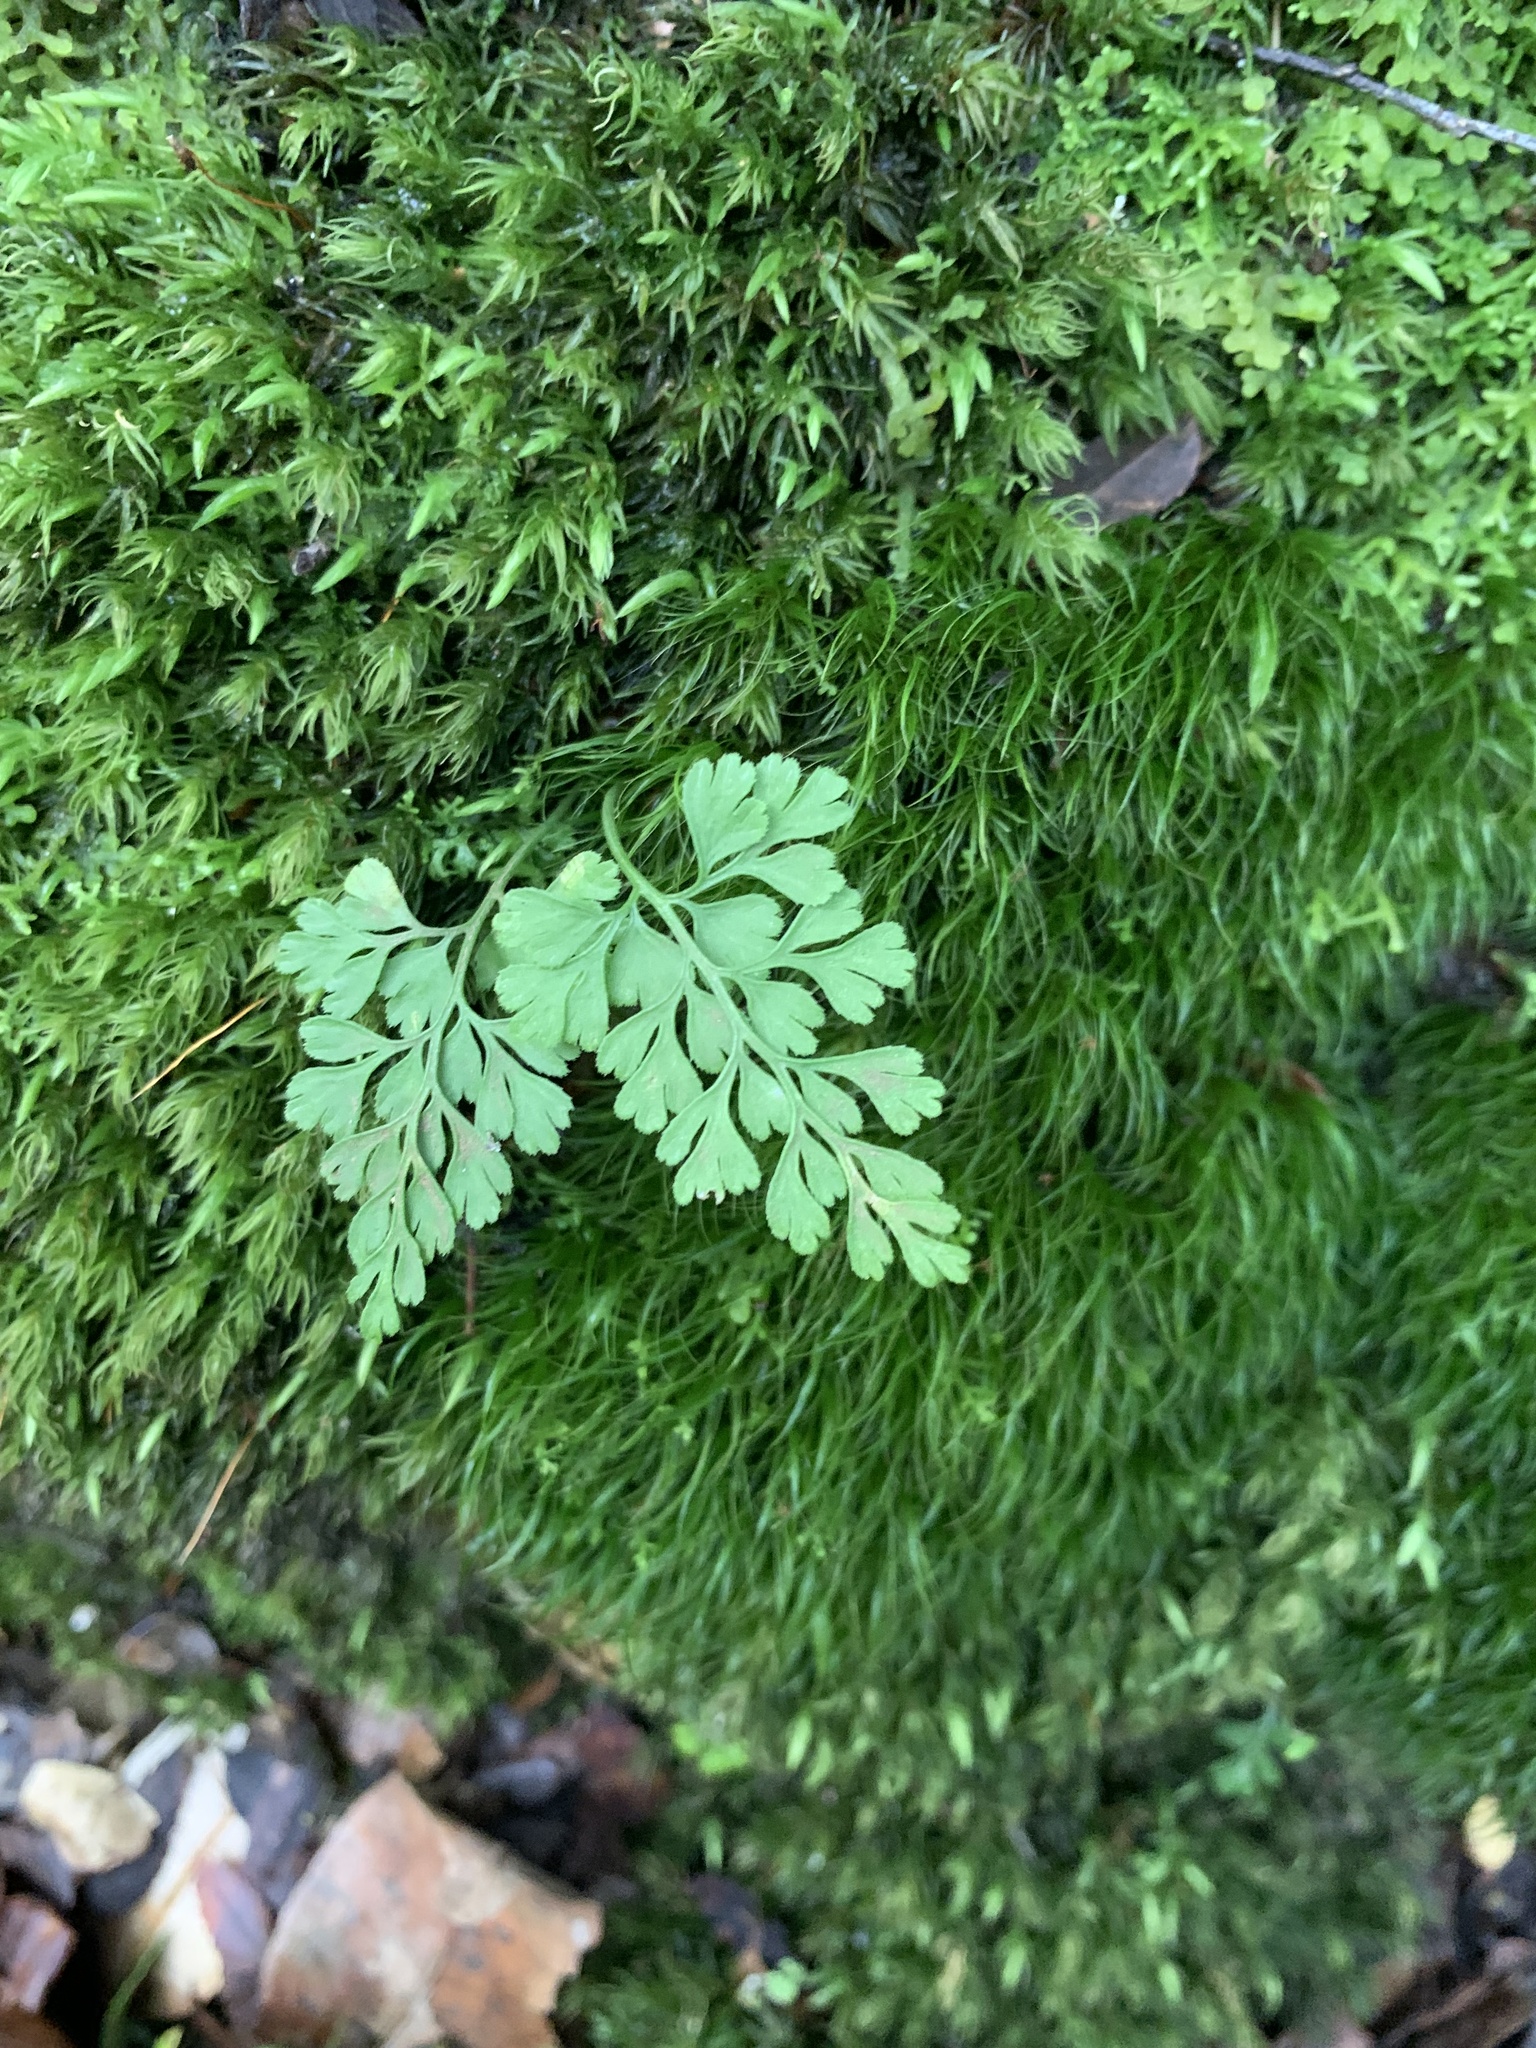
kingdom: Plantae
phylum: Tracheophyta
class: Polypodiopsida
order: Polypodiales
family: Aspleniaceae
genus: Asplenium
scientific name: Asplenium dareoides
